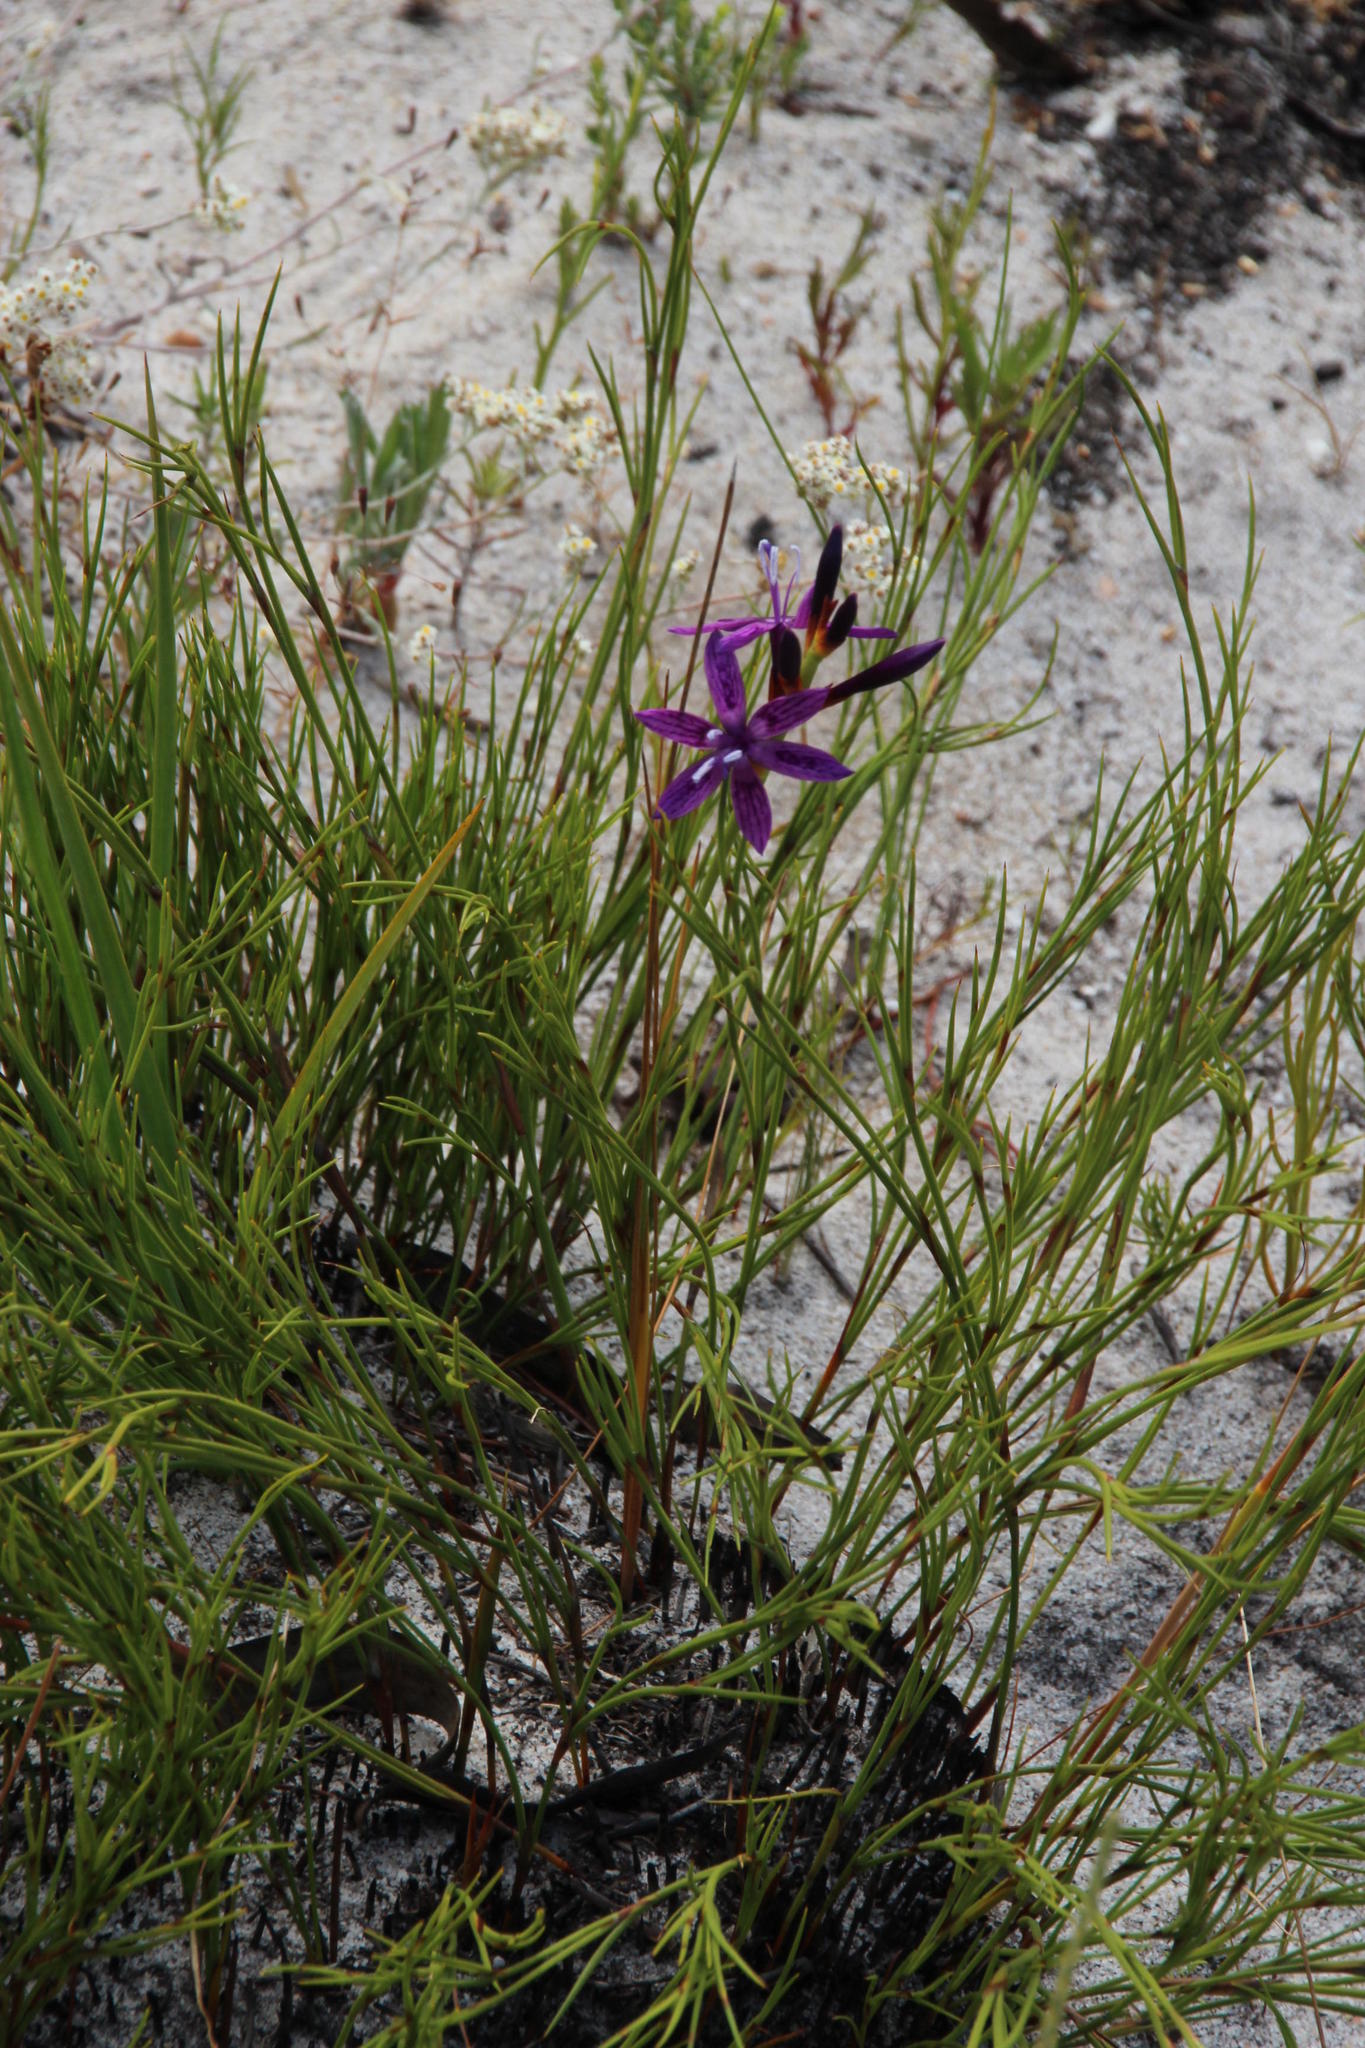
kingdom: Plantae
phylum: Tracheophyta
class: Liliopsida
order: Asparagales
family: Iridaceae
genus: Thereianthus
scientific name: Thereianthus bracteolatus
